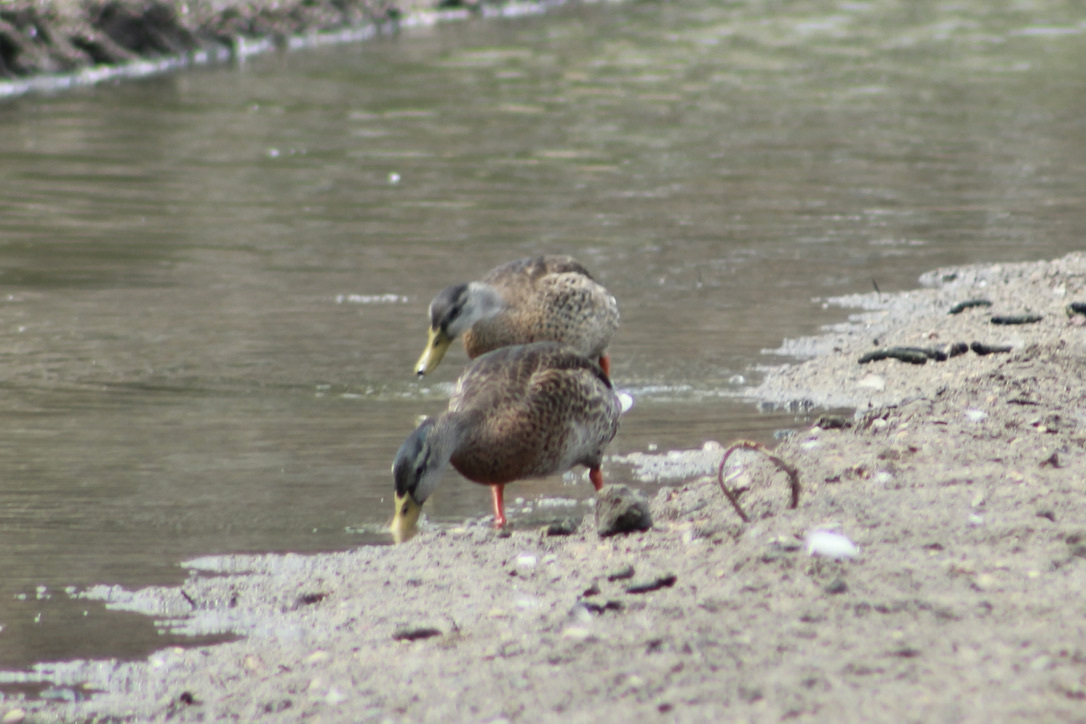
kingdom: Animalia
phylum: Chordata
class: Aves
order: Anseriformes
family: Anatidae
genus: Anas
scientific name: Anas platyrhynchos
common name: Mallard
